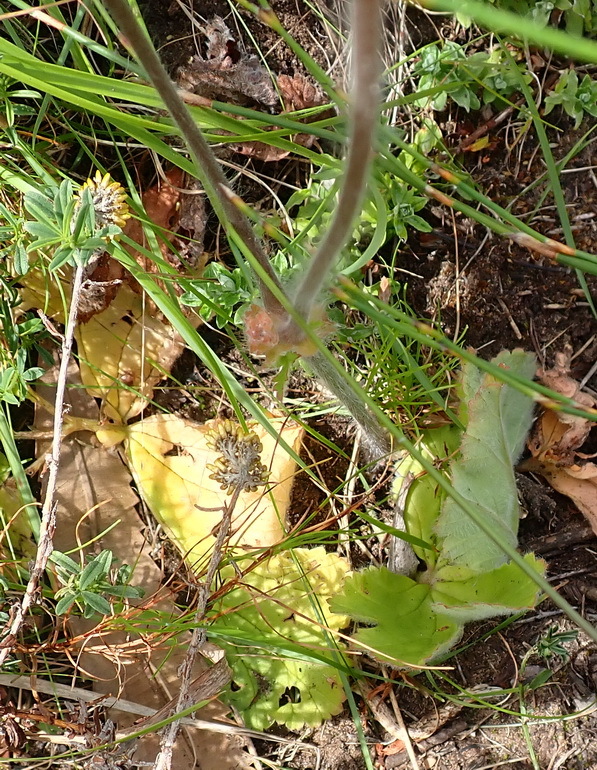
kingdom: Plantae
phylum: Tracheophyta
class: Magnoliopsida
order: Geraniales
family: Geraniaceae
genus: Pelargonium
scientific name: Pelargonium lobatum
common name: Vine-leaf pelargonium
